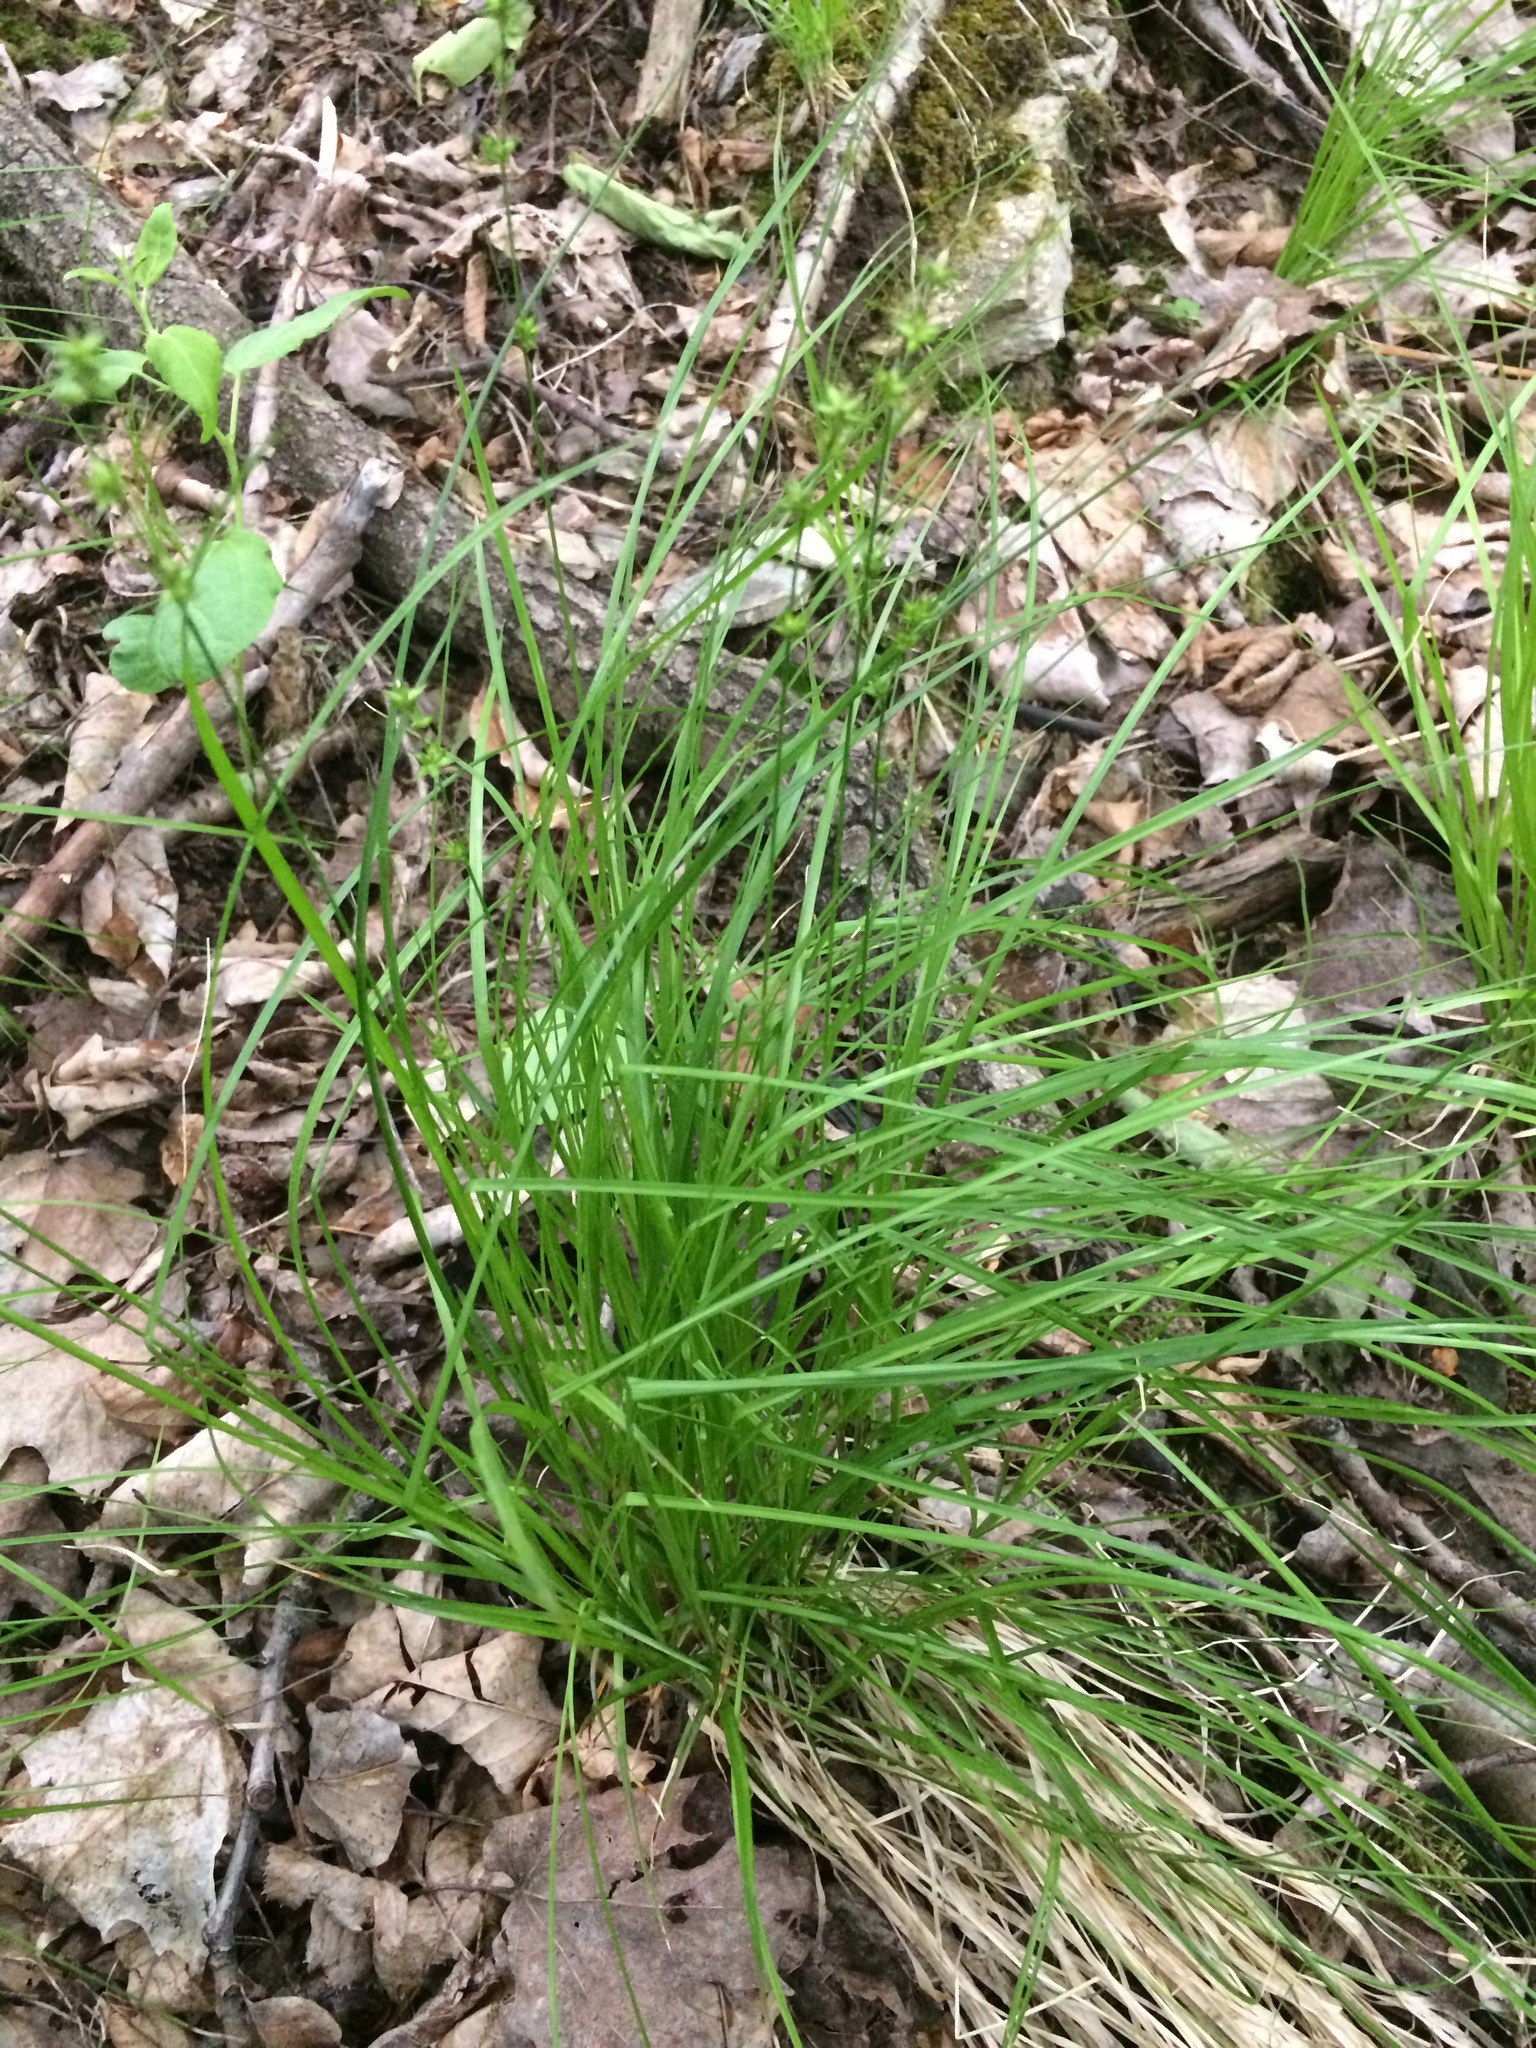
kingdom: Plantae
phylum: Tracheophyta
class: Liliopsida
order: Poales
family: Cyperaceae
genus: Carex
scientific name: Carex rosea
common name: Curly-styled wood sedge
